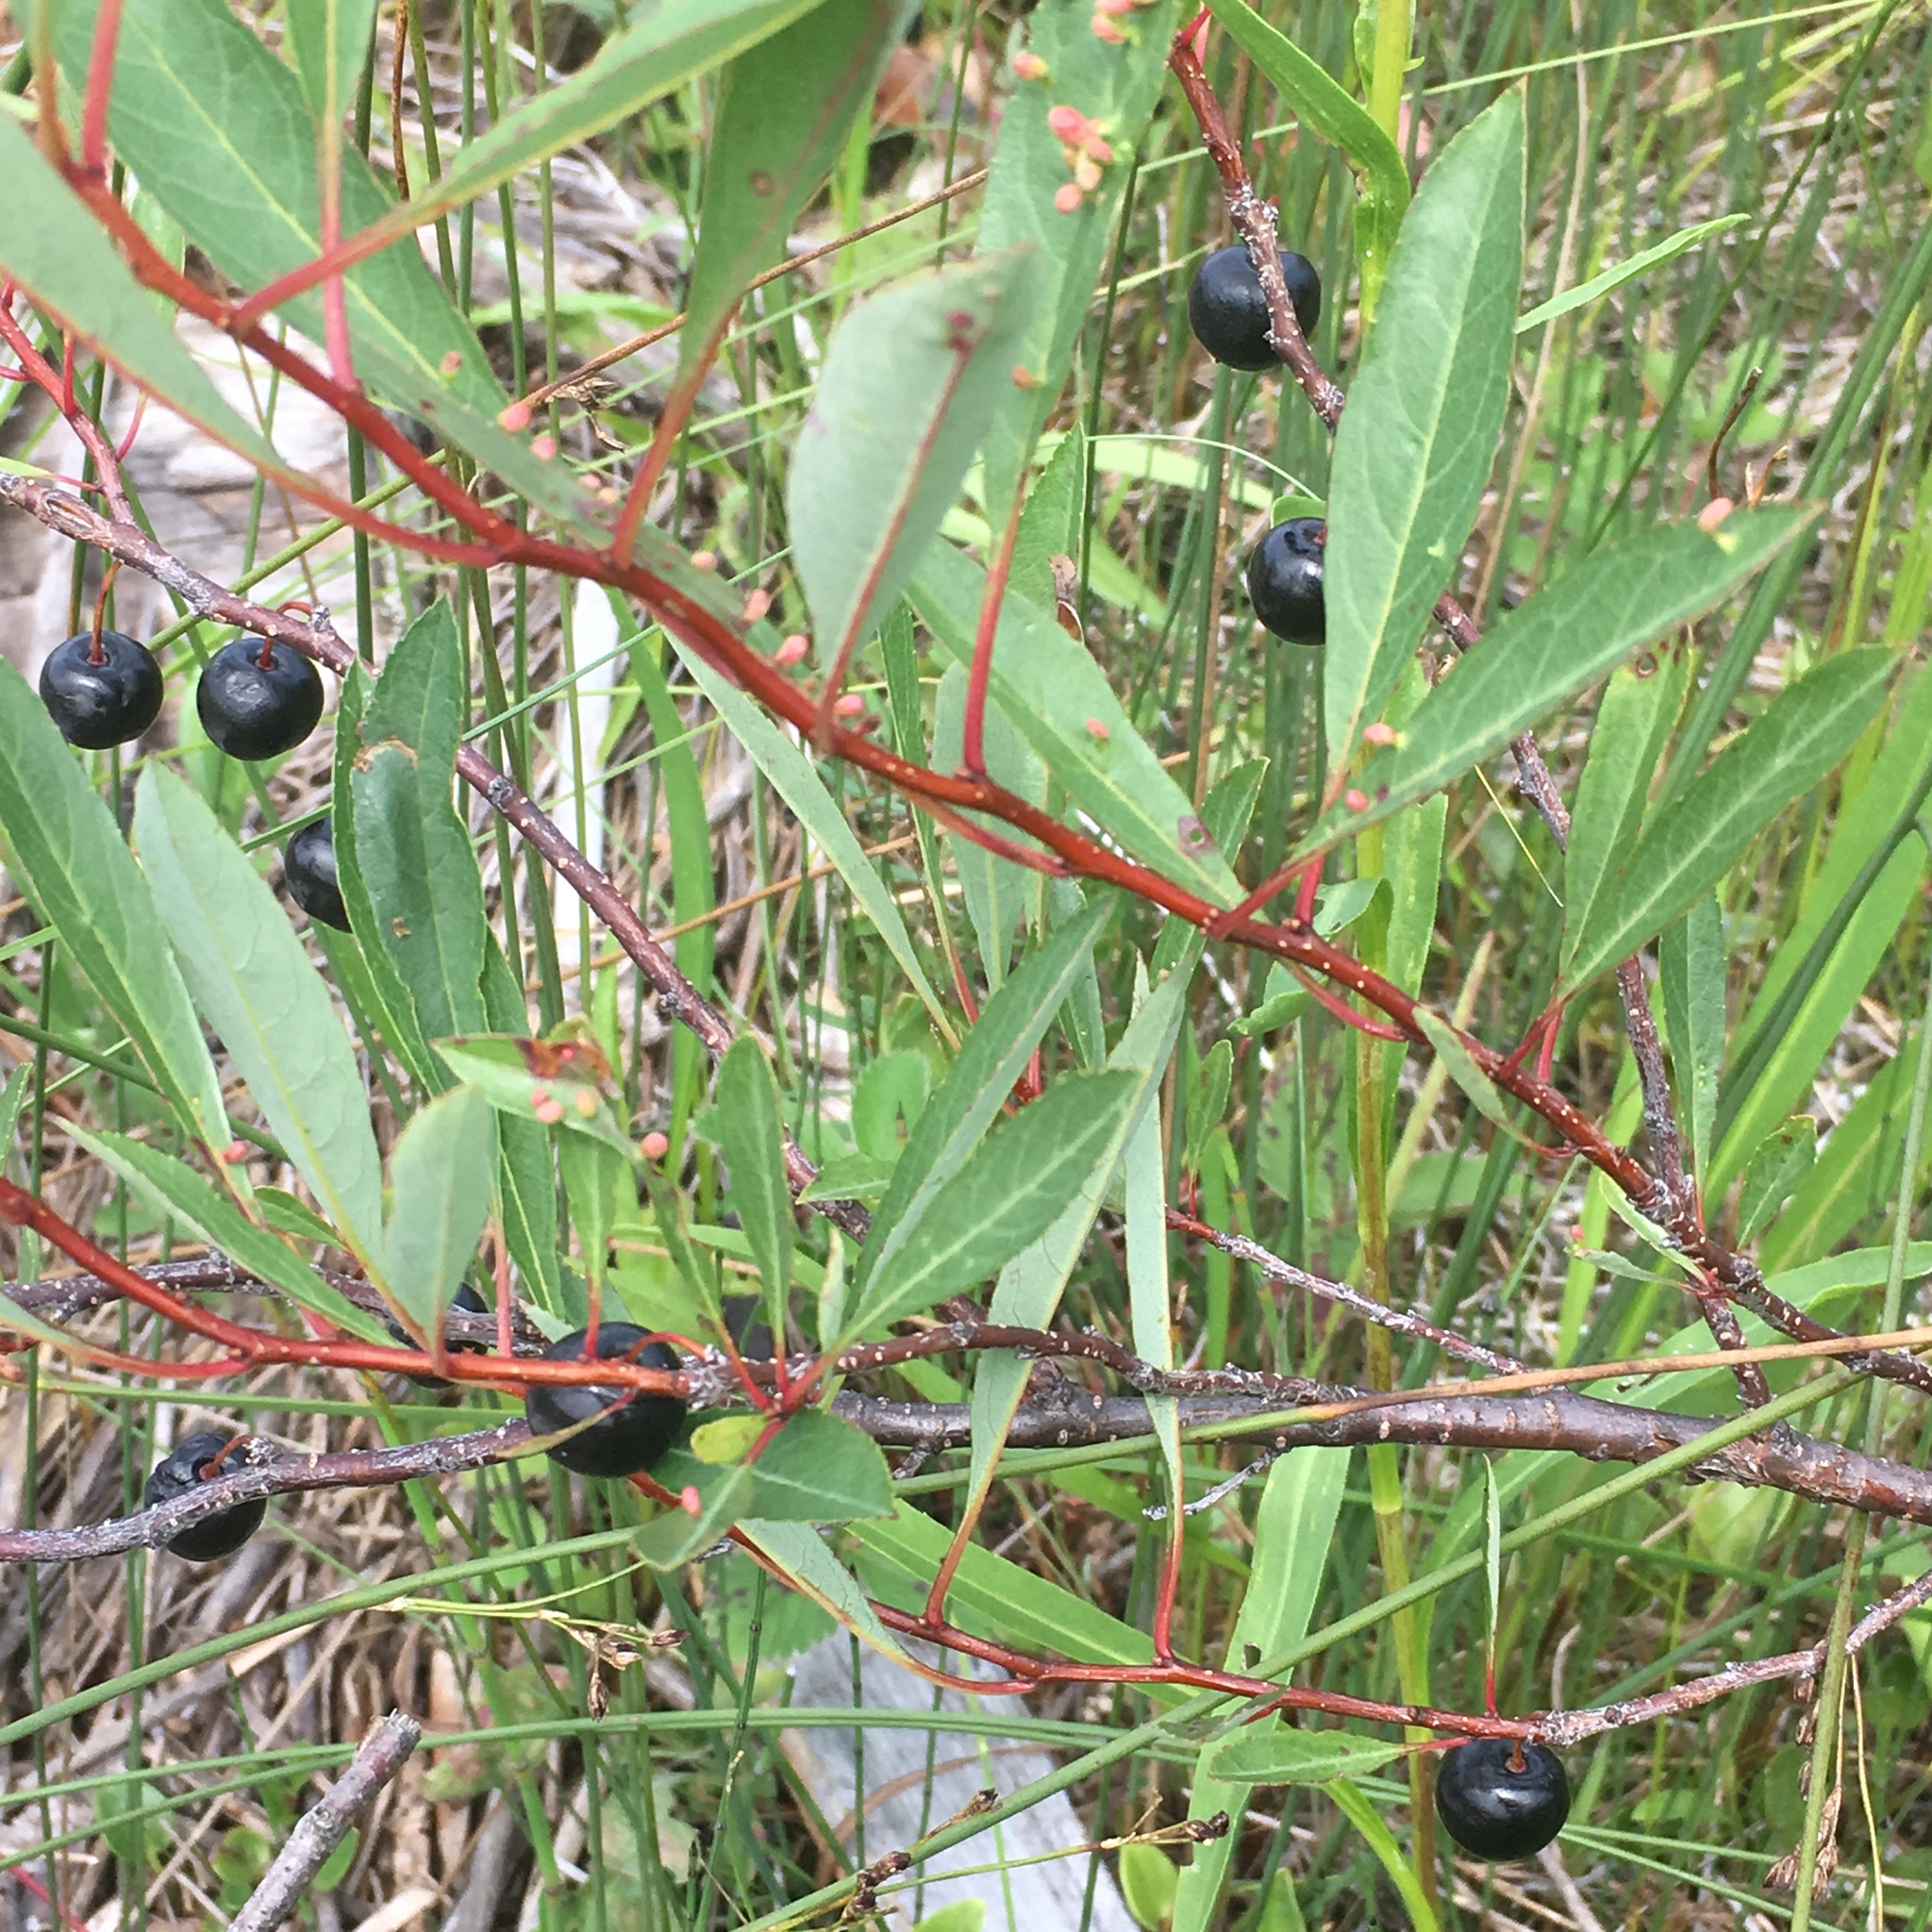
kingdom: Plantae
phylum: Tracheophyta
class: Magnoliopsida
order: Rosales
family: Rosaceae
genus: Prunus
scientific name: Prunus pumila
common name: Dwarf cherry
